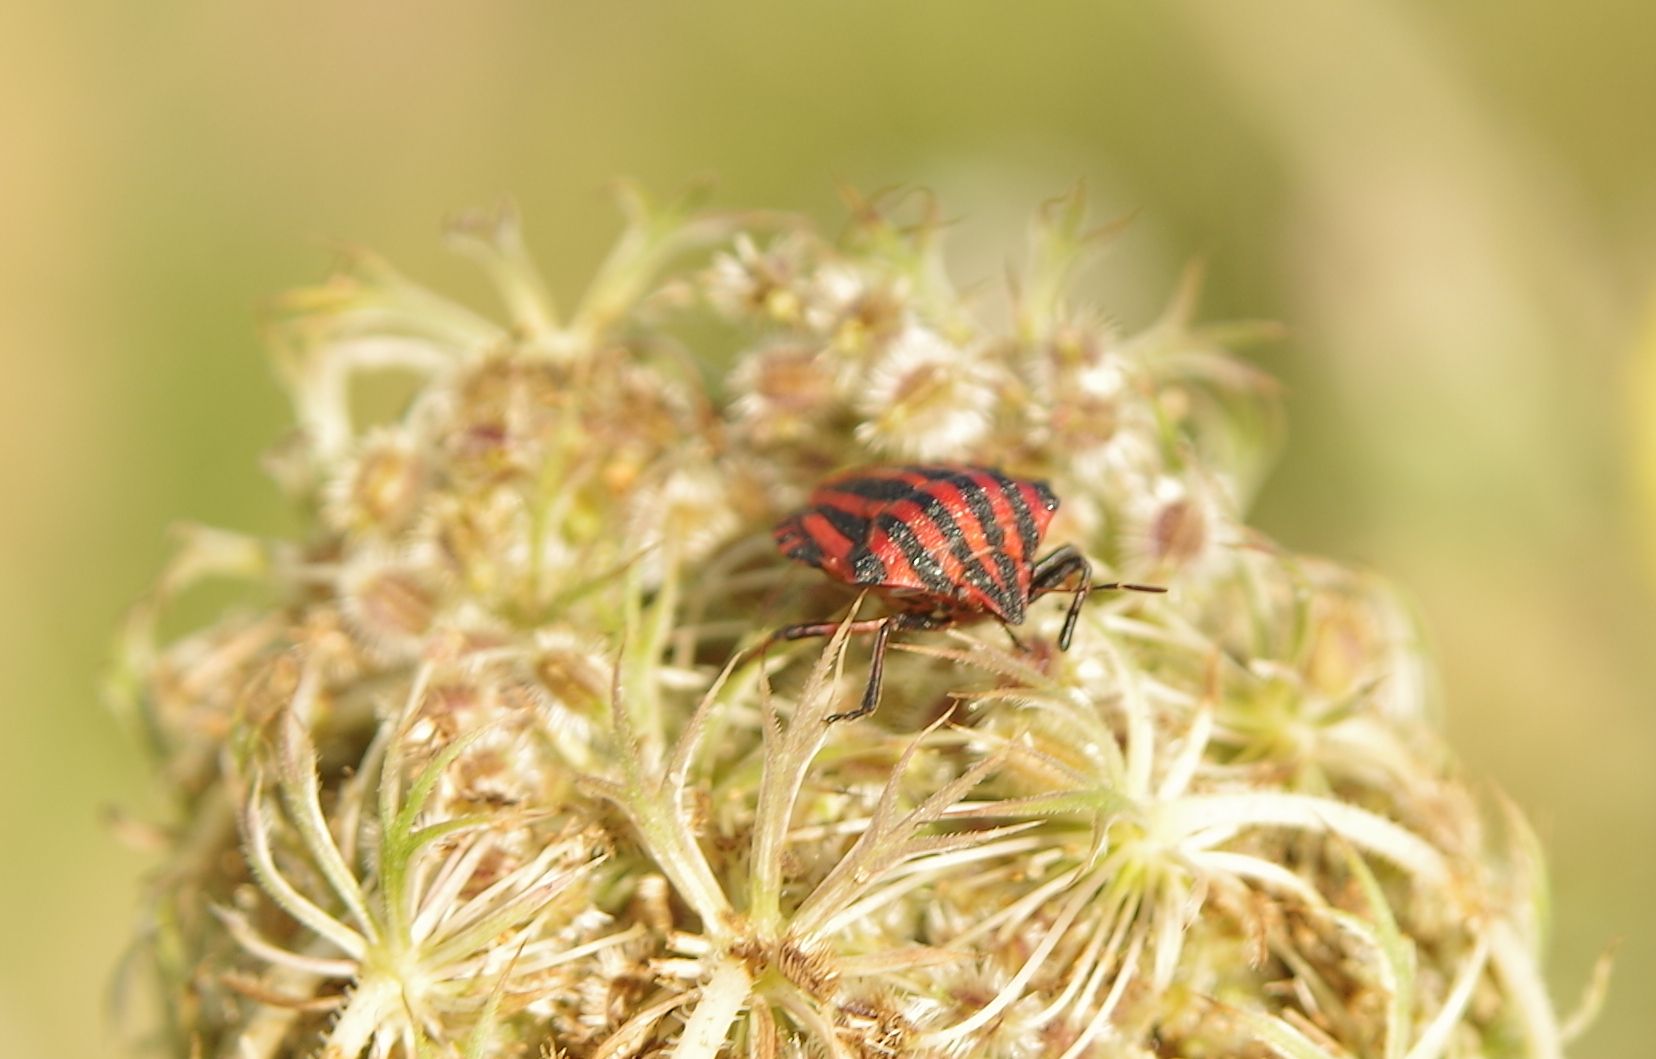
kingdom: Animalia
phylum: Arthropoda
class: Insecta
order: Hemiptera
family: Pentatomidae
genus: Graphosoma
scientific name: Graphosoma italicum
